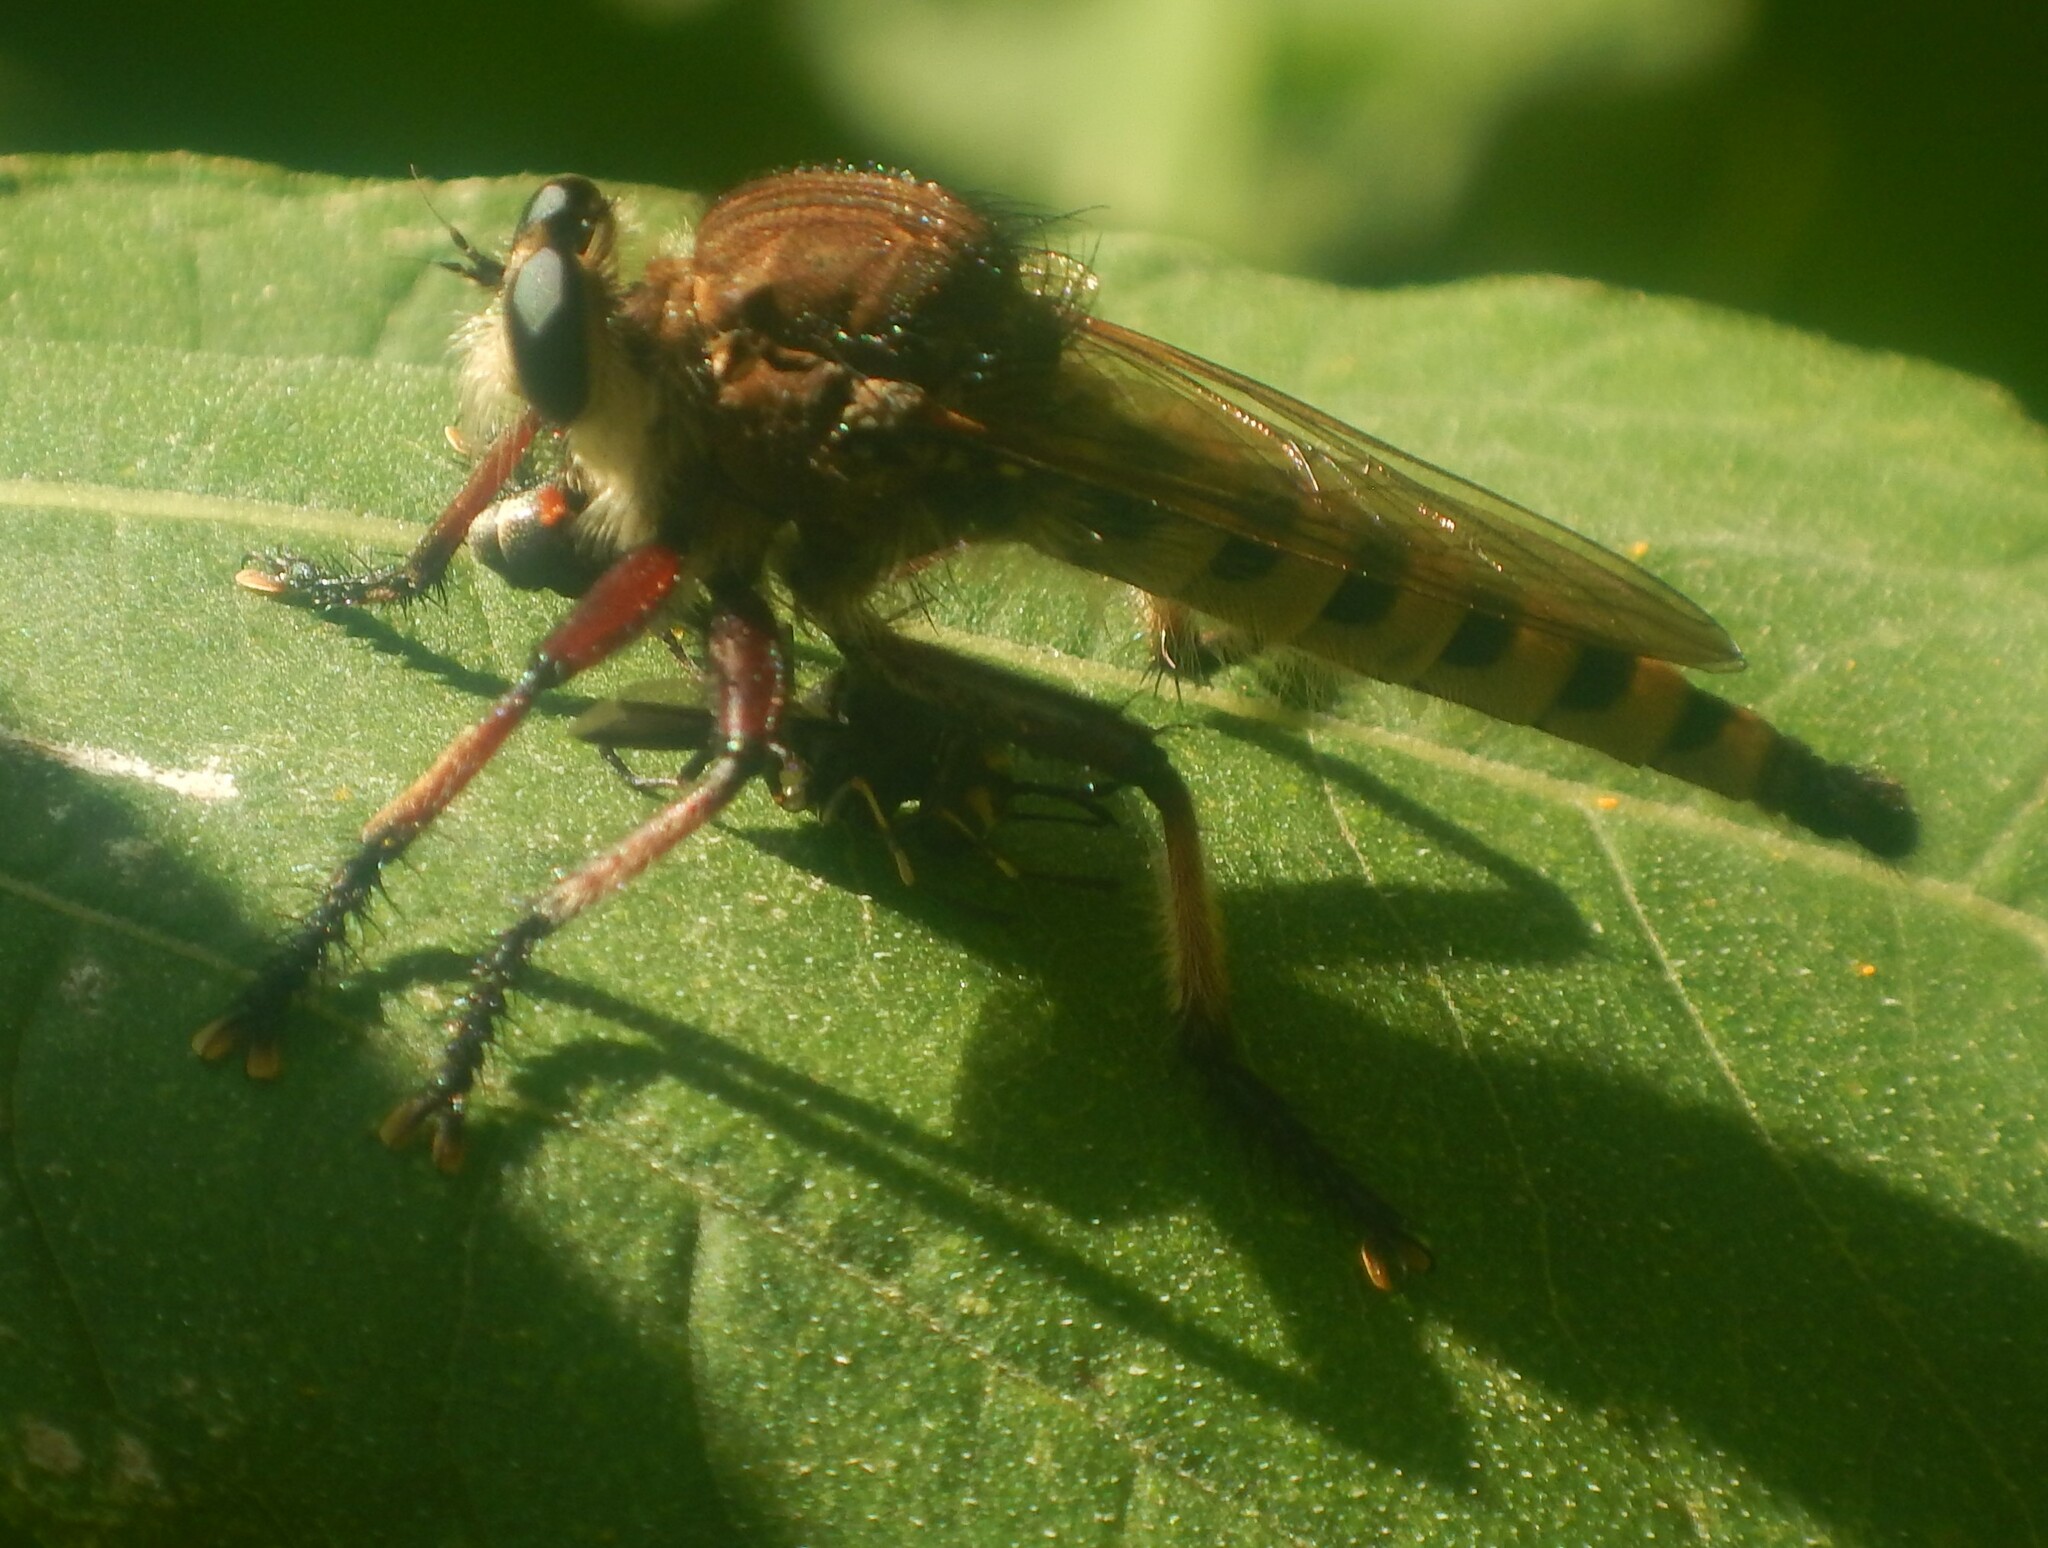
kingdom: Animalia
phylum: Arthropoda
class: Insecta
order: Diptera
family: Asilidae
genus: Promachus
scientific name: Promachus hinei
